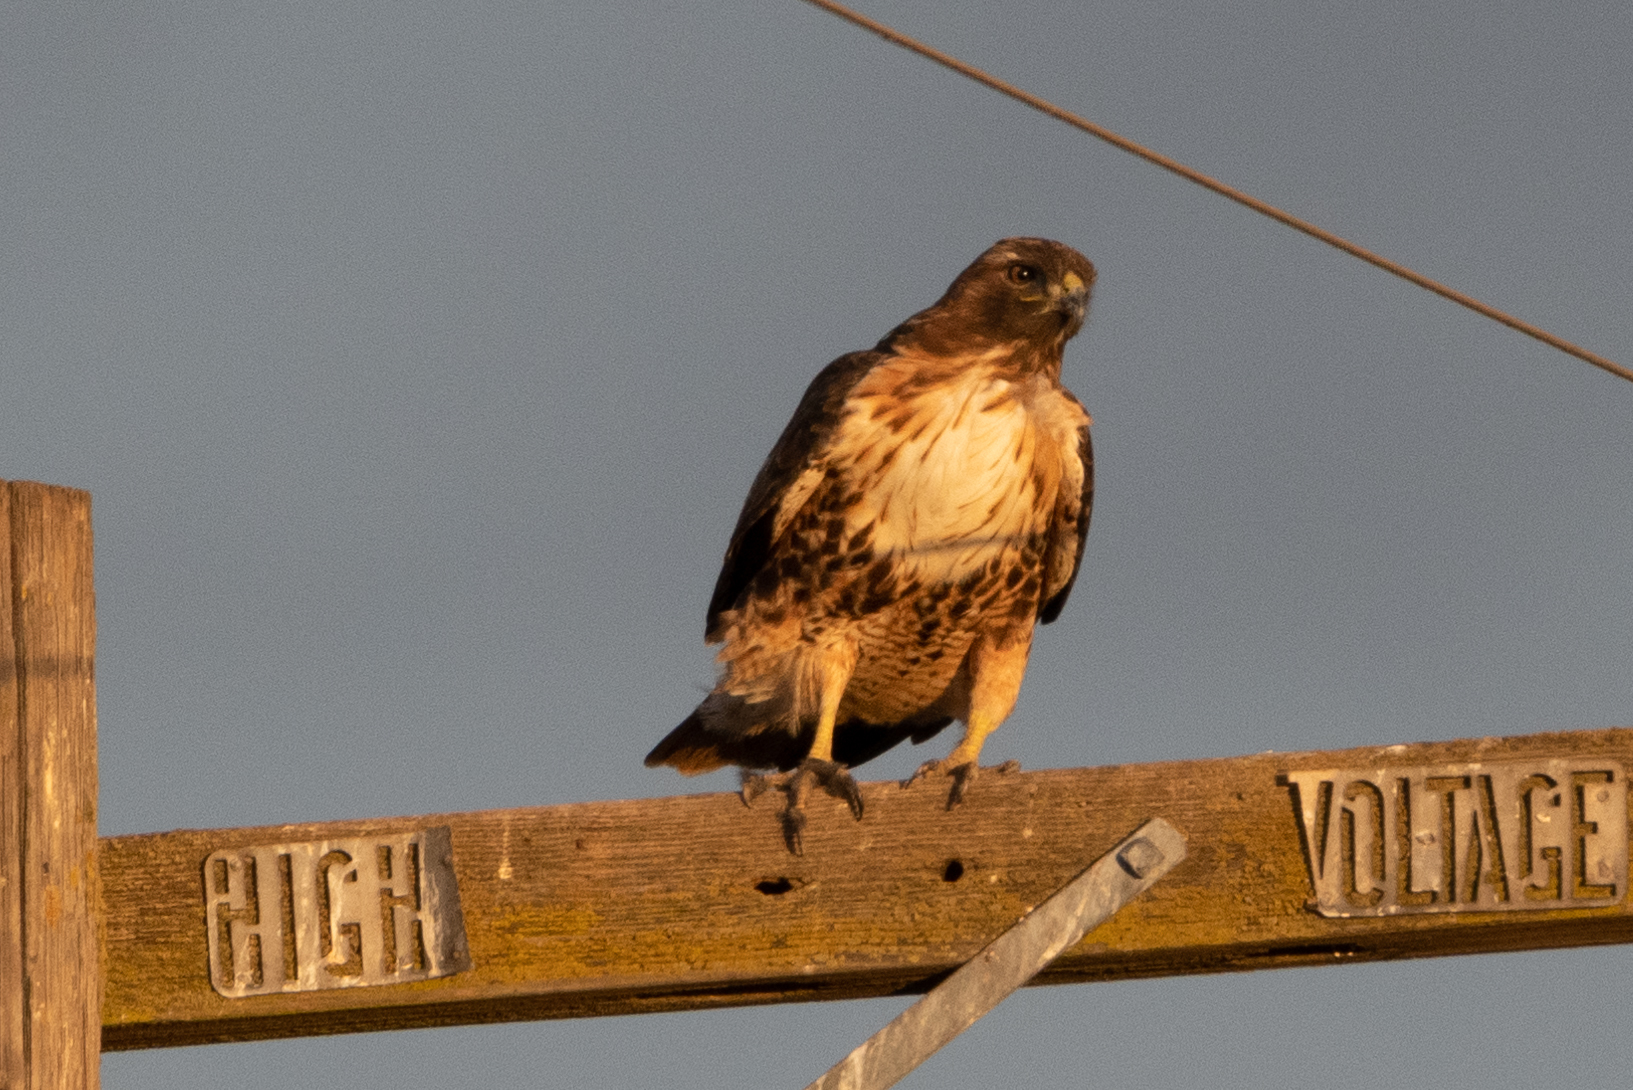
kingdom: Animalia
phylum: Chordata
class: Aves
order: Accipitriformes
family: Accipitridae
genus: Buteo
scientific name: Buteo jamaicensis
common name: Red-tailed hawk
